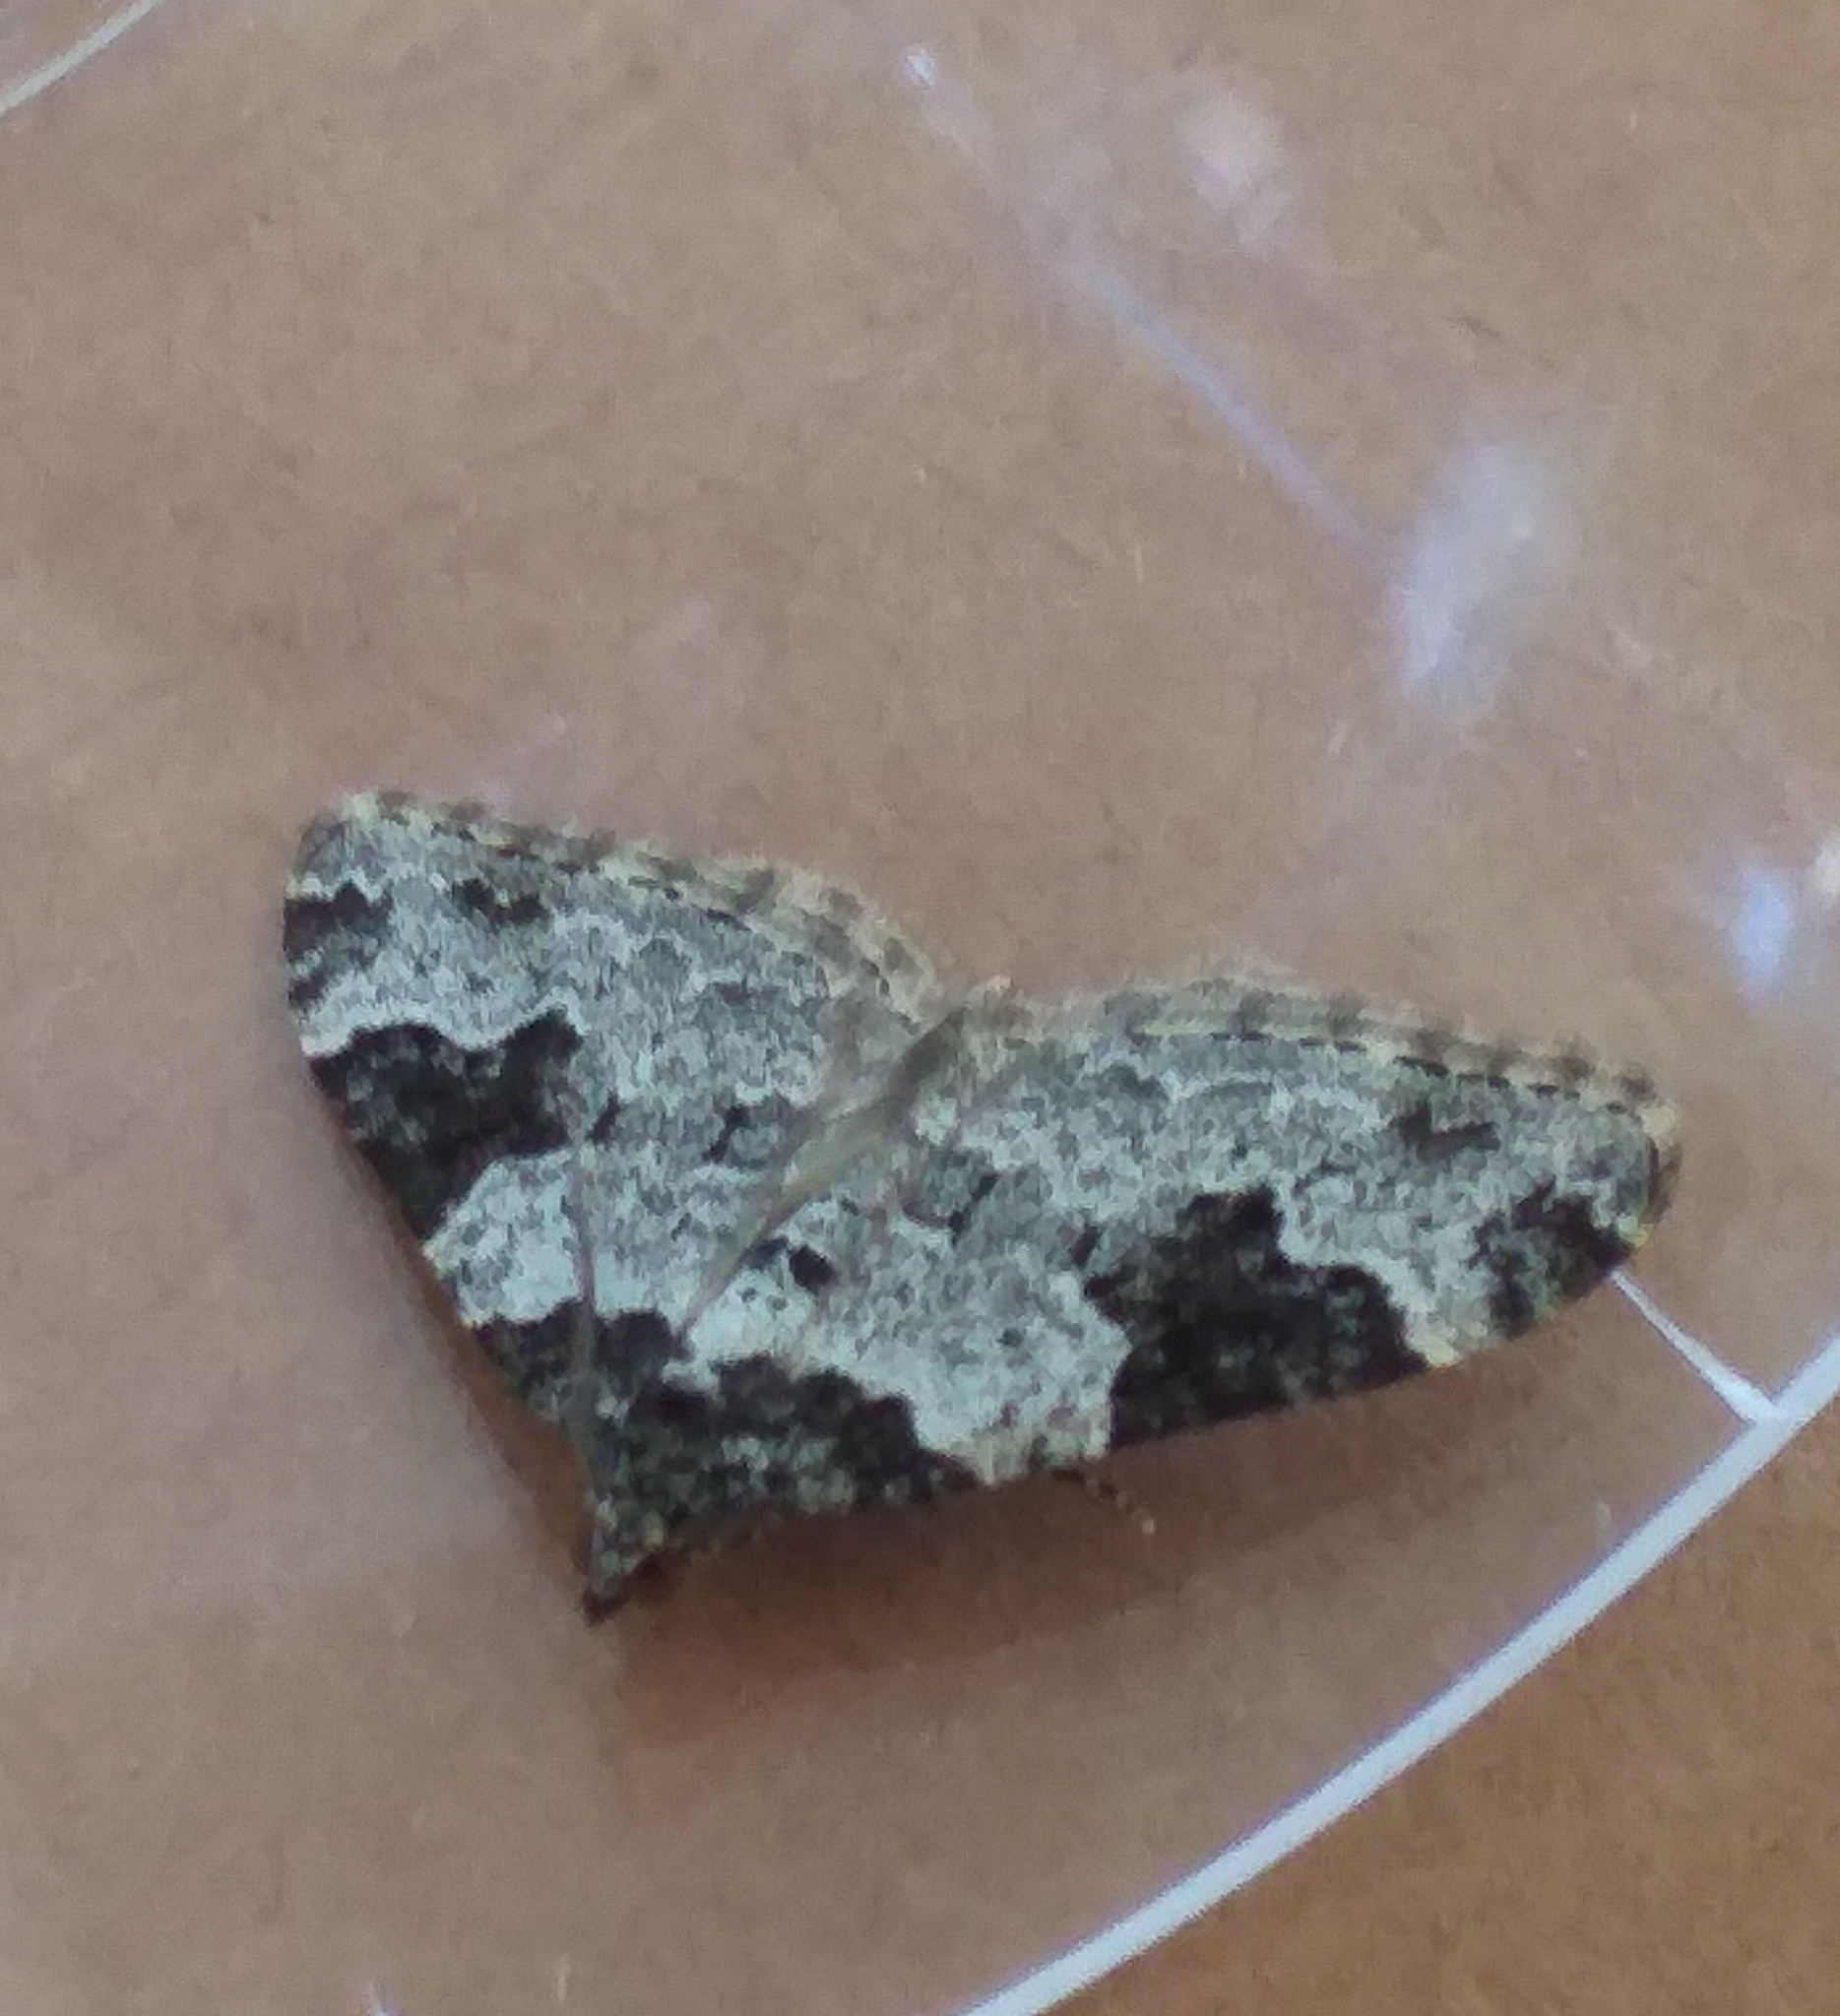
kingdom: Animalia
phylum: Arthropoda
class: Insecta
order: Lepidoptera
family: Geometridae
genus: Xanthorhoe
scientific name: Xanthorhoe fluctuata
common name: Garden carpet
